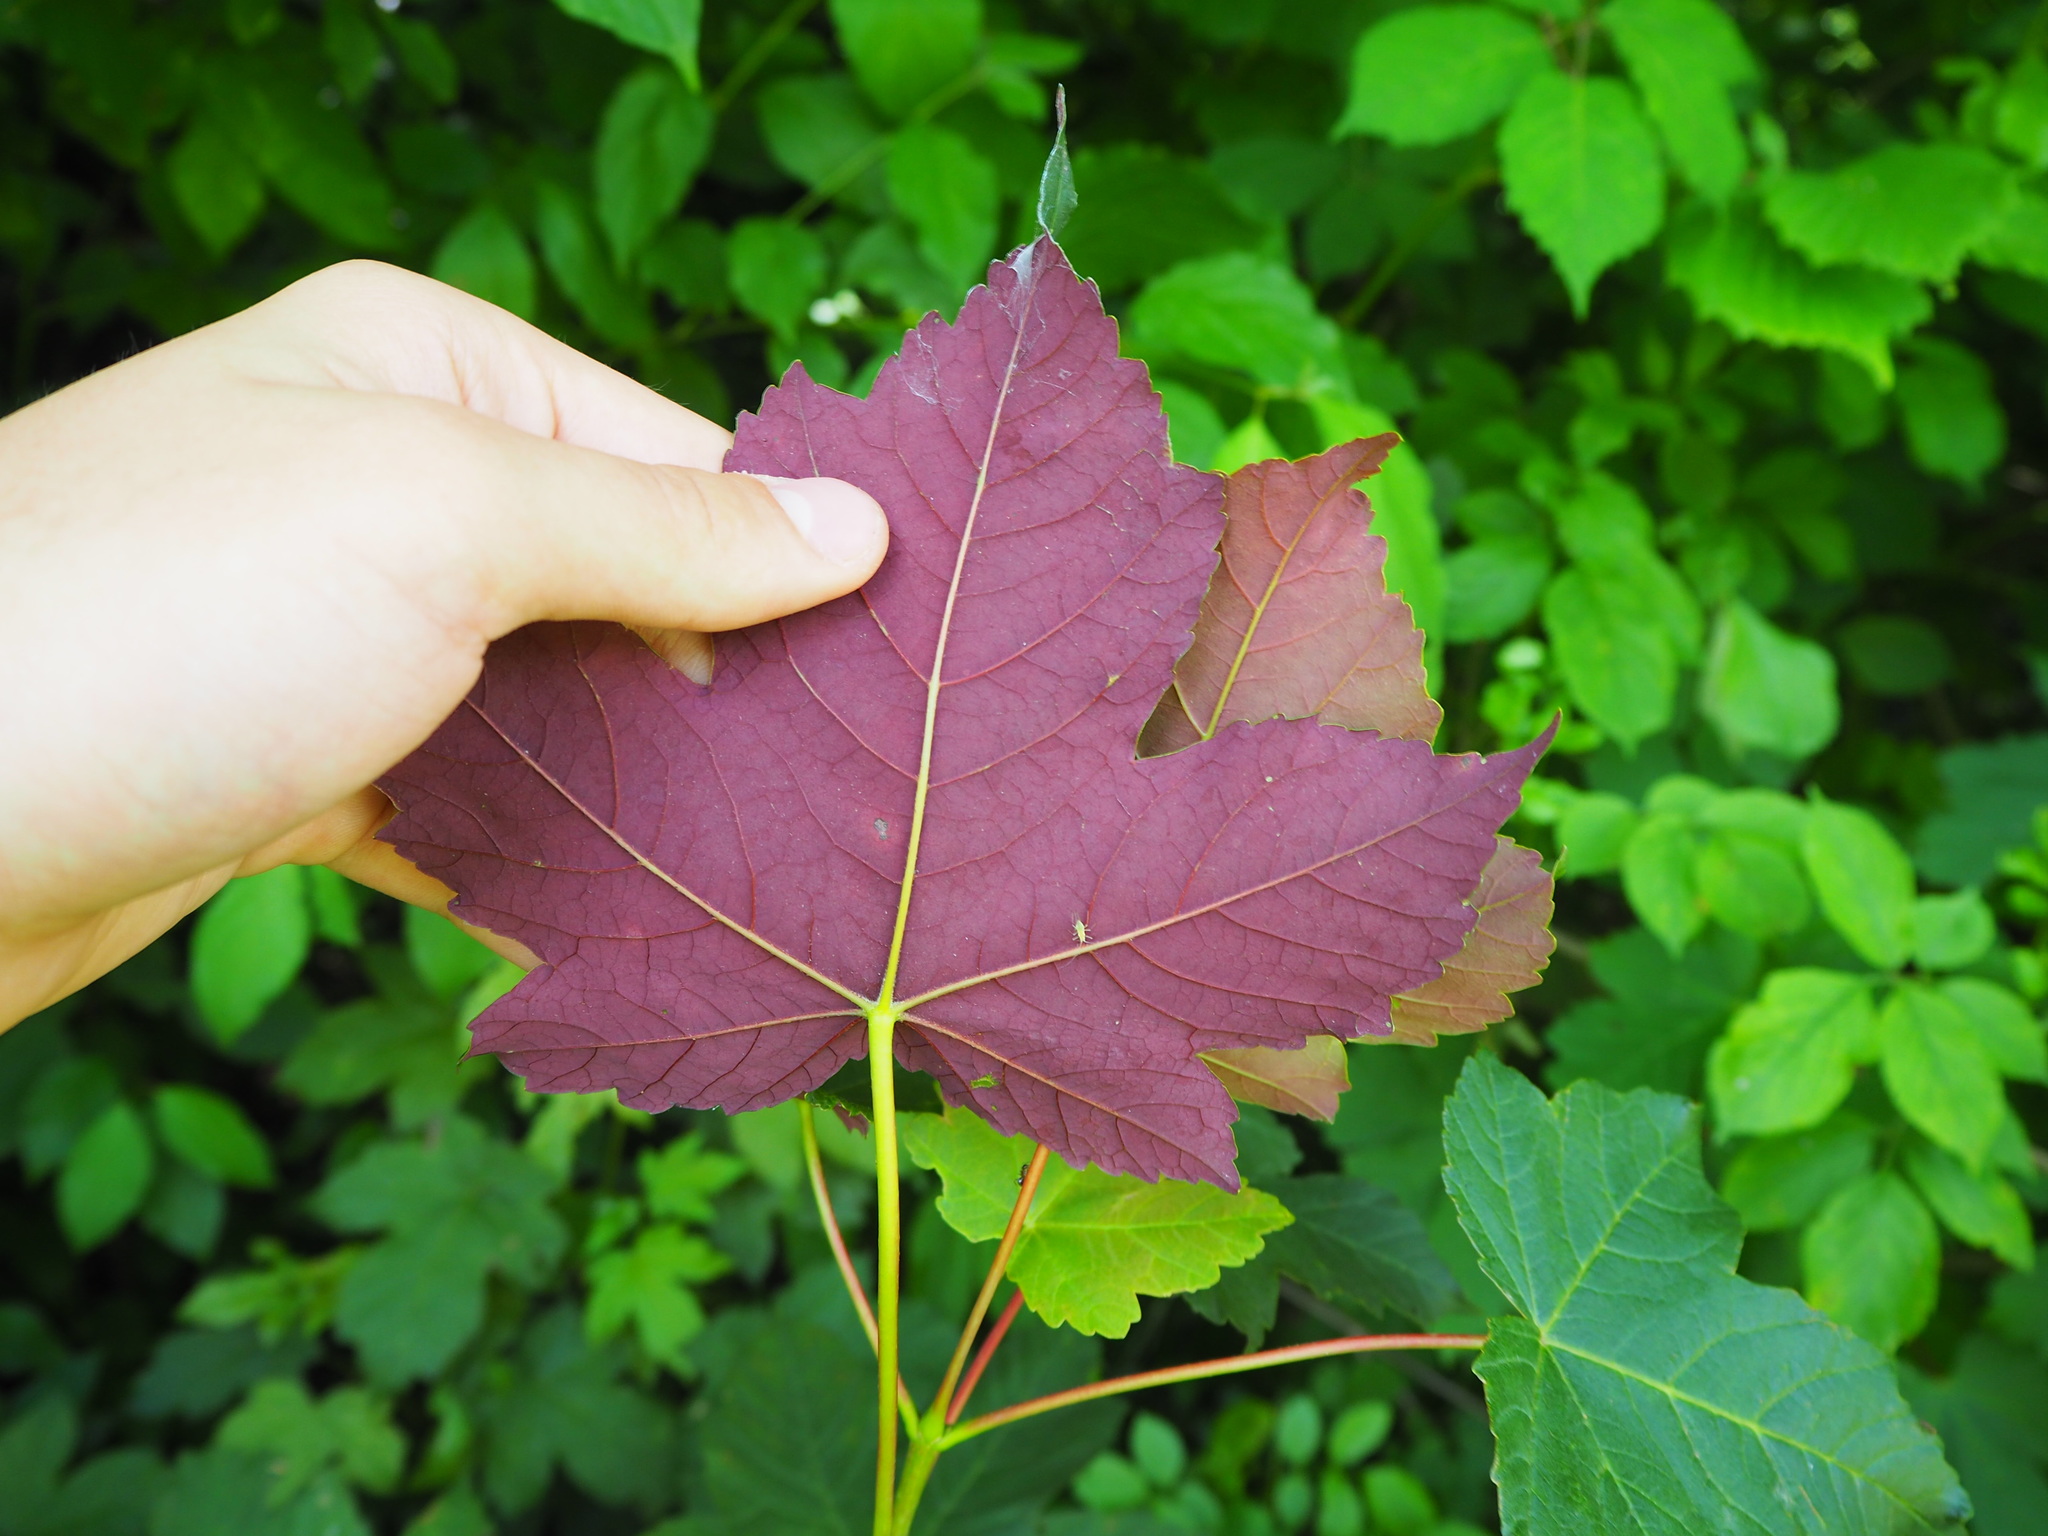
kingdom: Plantae
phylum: Tracheophyta
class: Magnoliopsida
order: Sapindales
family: Sapindaceae
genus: Acer
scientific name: Acer pseudoplatanus
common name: Sycamore
